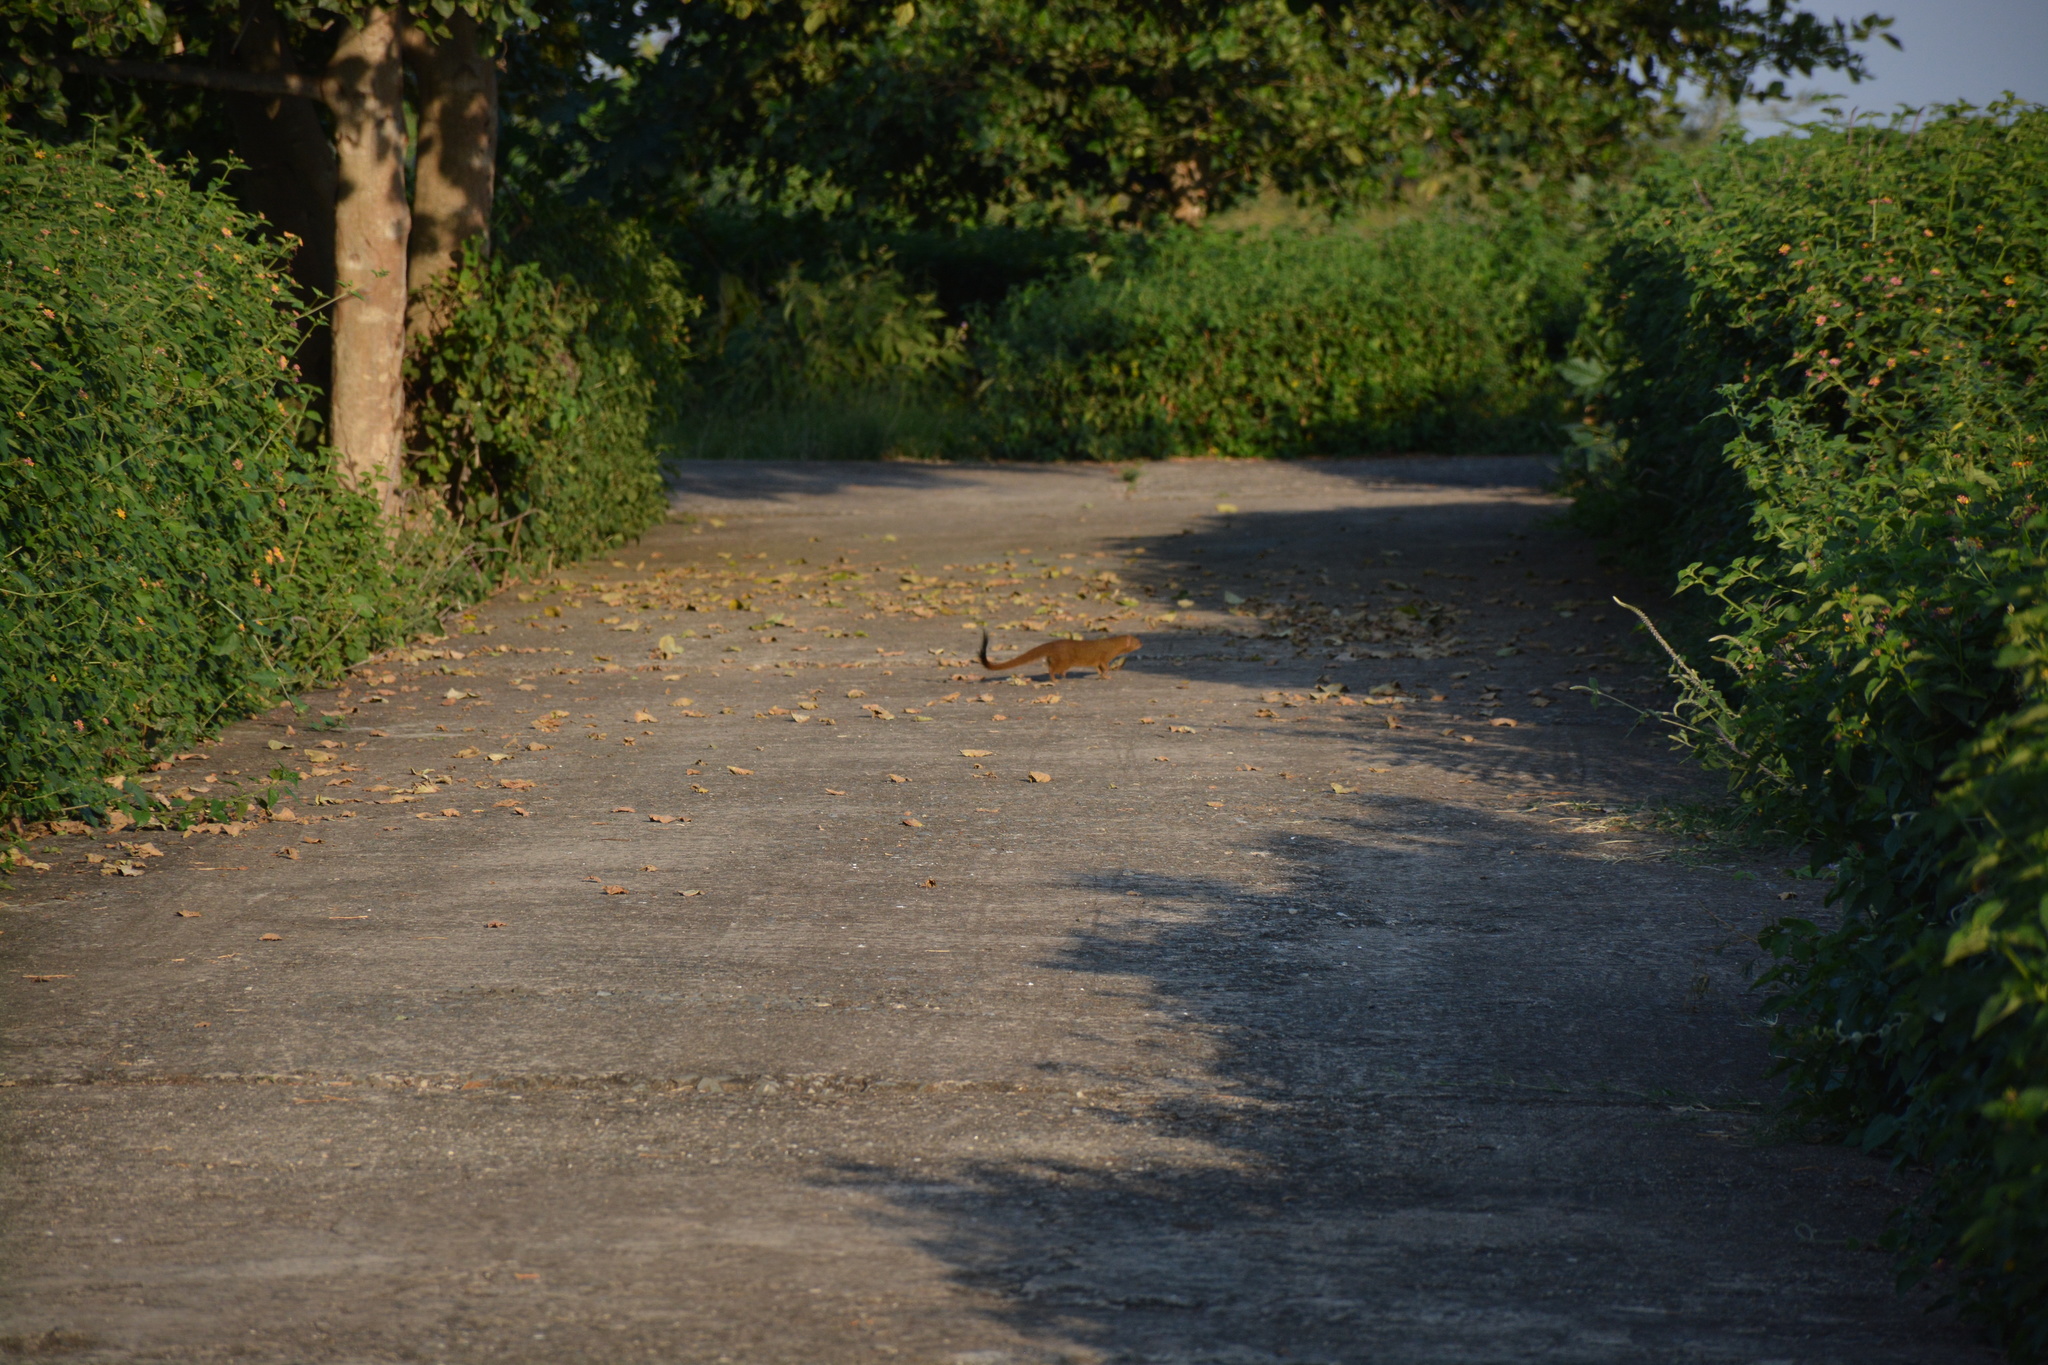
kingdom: Animalia
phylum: Chordata
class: Mammalia
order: Carnivora
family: Herpestidae
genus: Galerella
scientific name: Galerella sanguinea
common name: Slender mongoose
